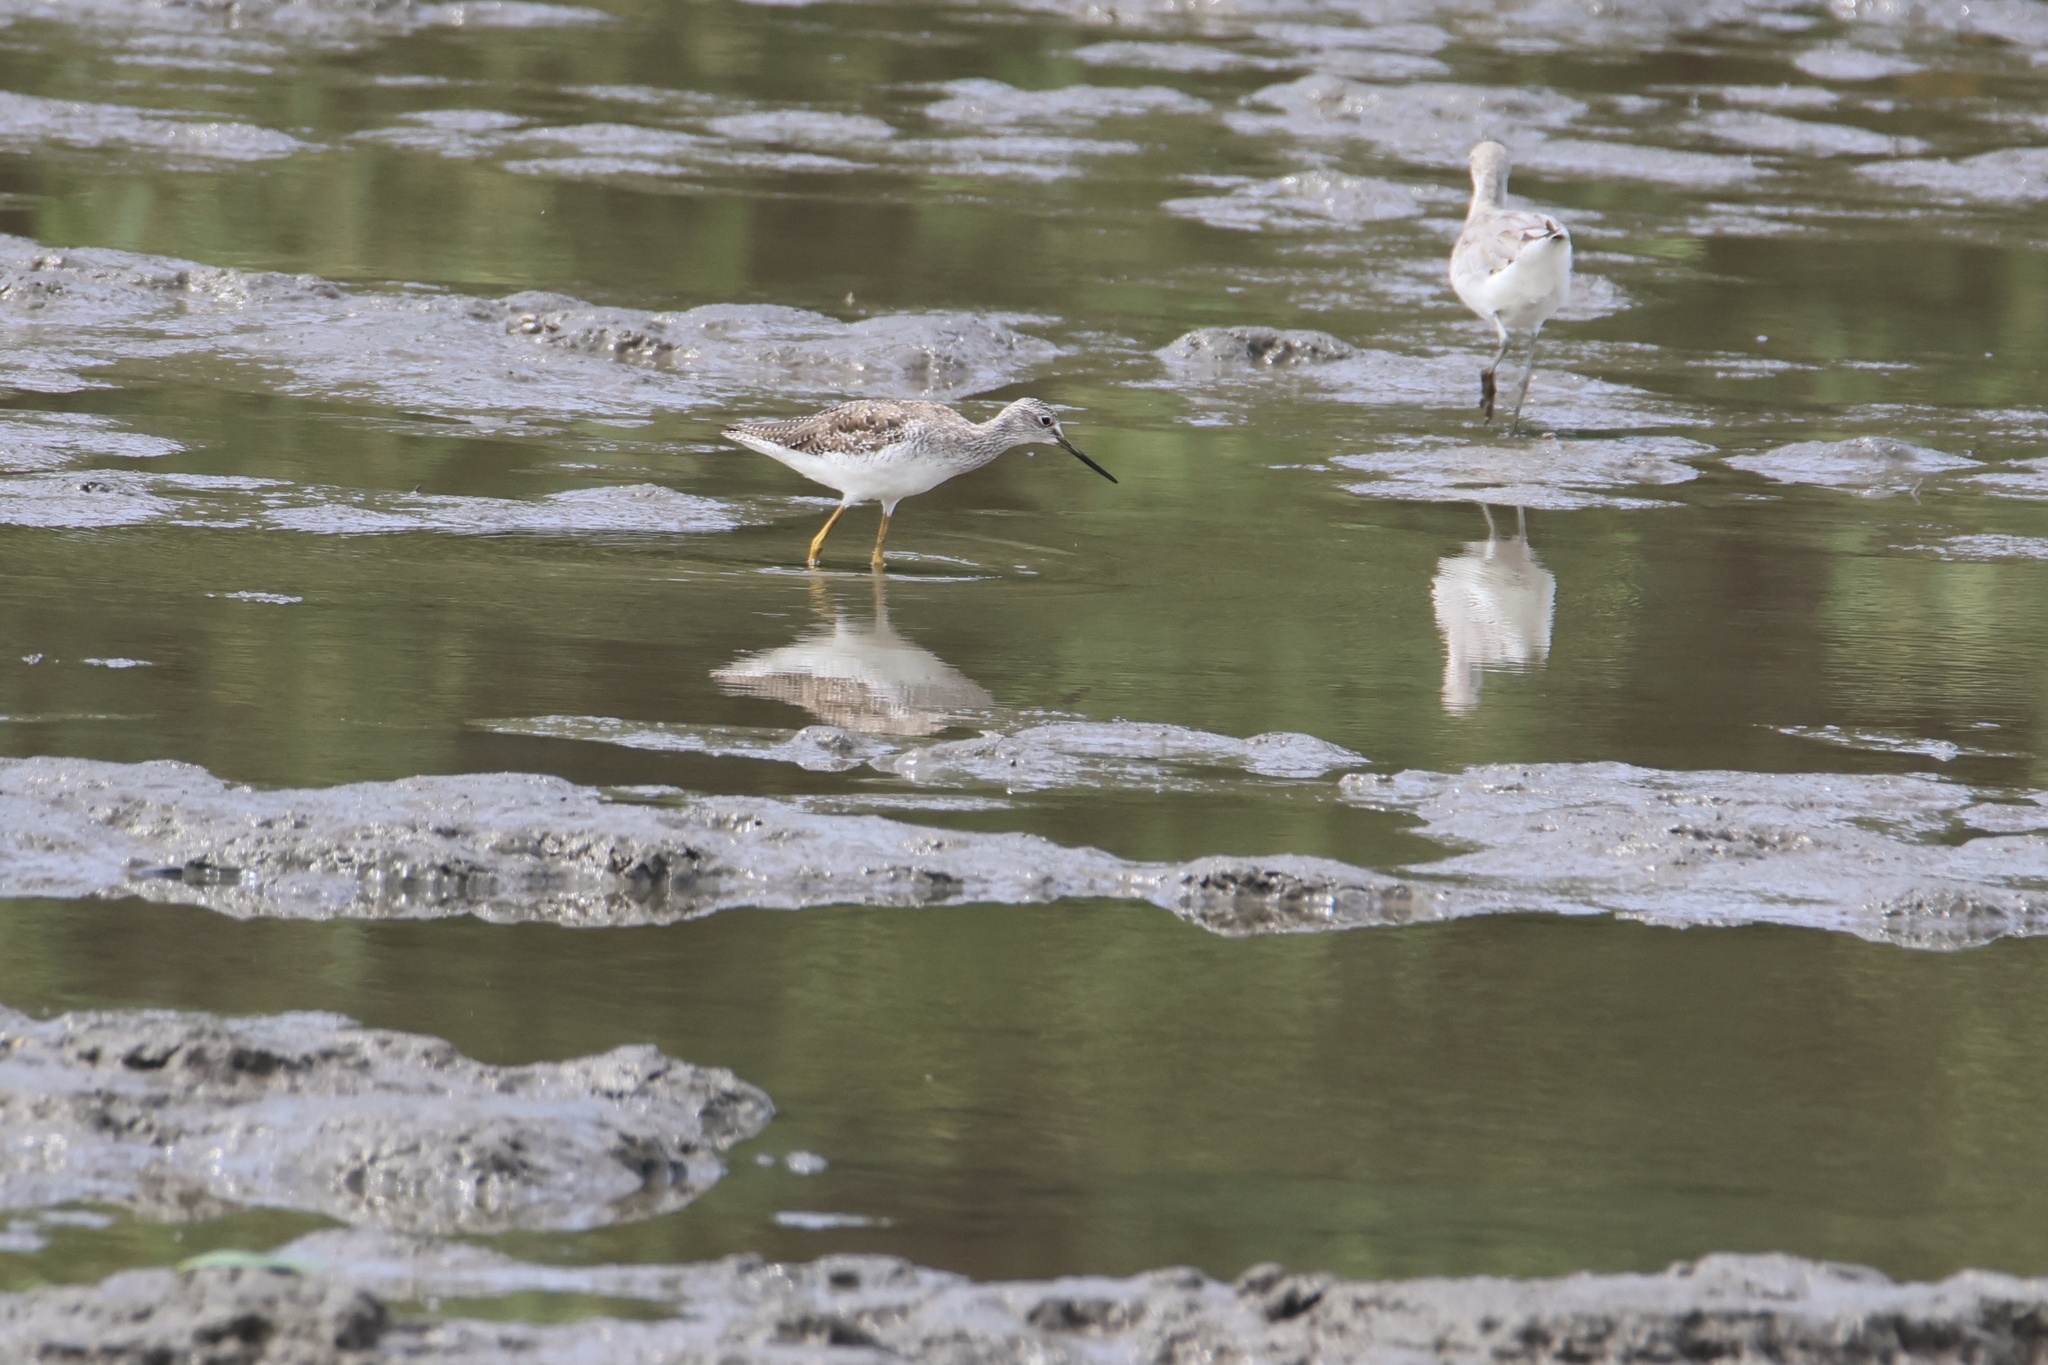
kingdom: Animalia
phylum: Chordata
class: Aves
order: Charadriiformes
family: Scolopacidae
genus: Tringa
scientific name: Tringa melanoleuca
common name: Greater yellowlegs
